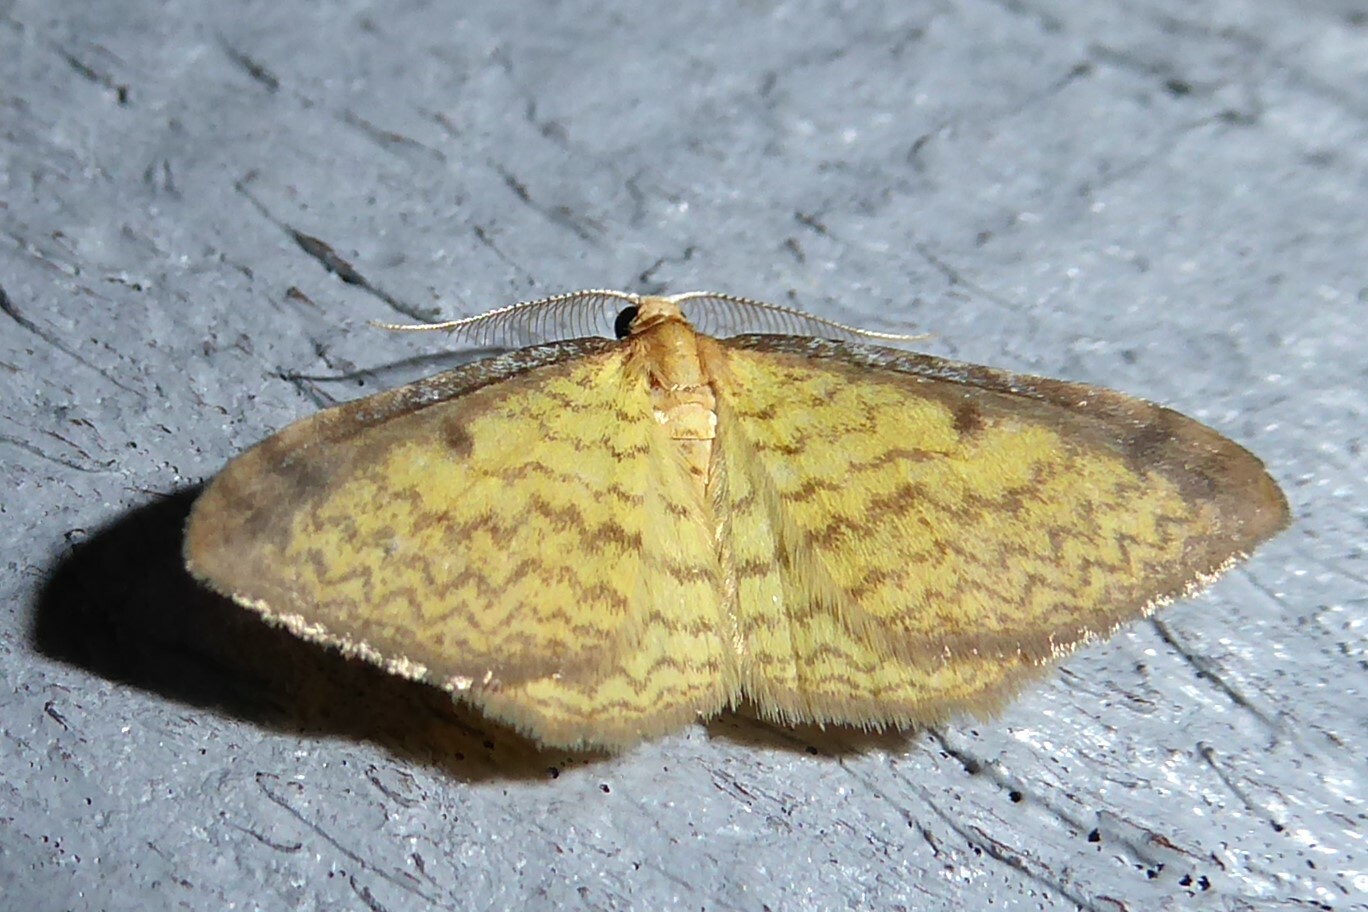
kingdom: Animalia
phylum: Arthropoda
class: Insecta
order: Lepidoptera
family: Geometridae
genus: Epiphryne
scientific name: Epiphryne undosata
